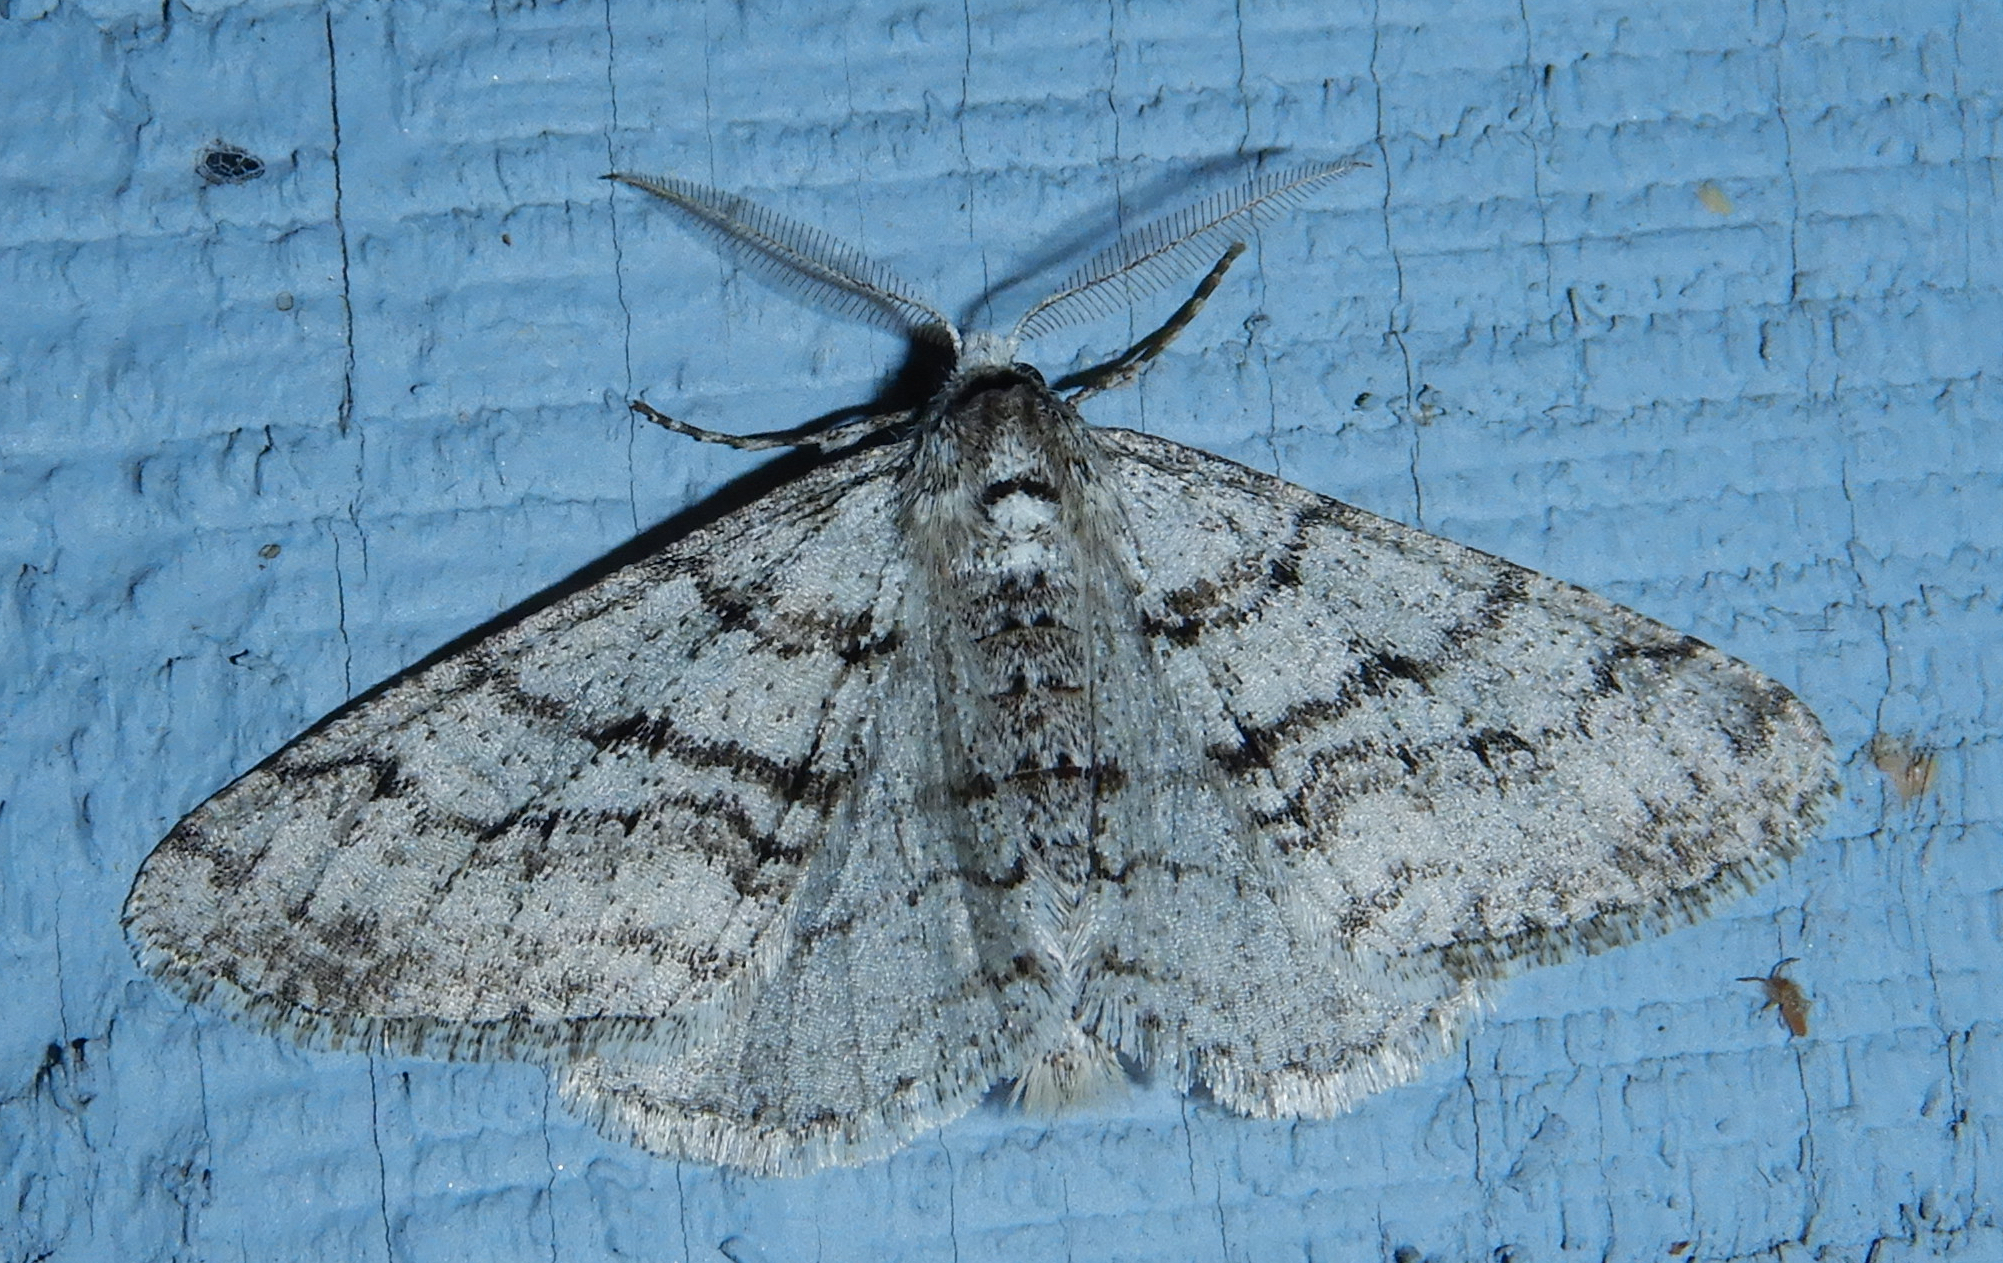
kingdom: Animalia
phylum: Arthropoda
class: Insecta
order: Lepidoptera
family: Geometridae
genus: Phigalia
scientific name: Phigalia strigataria
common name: Small phigalia
